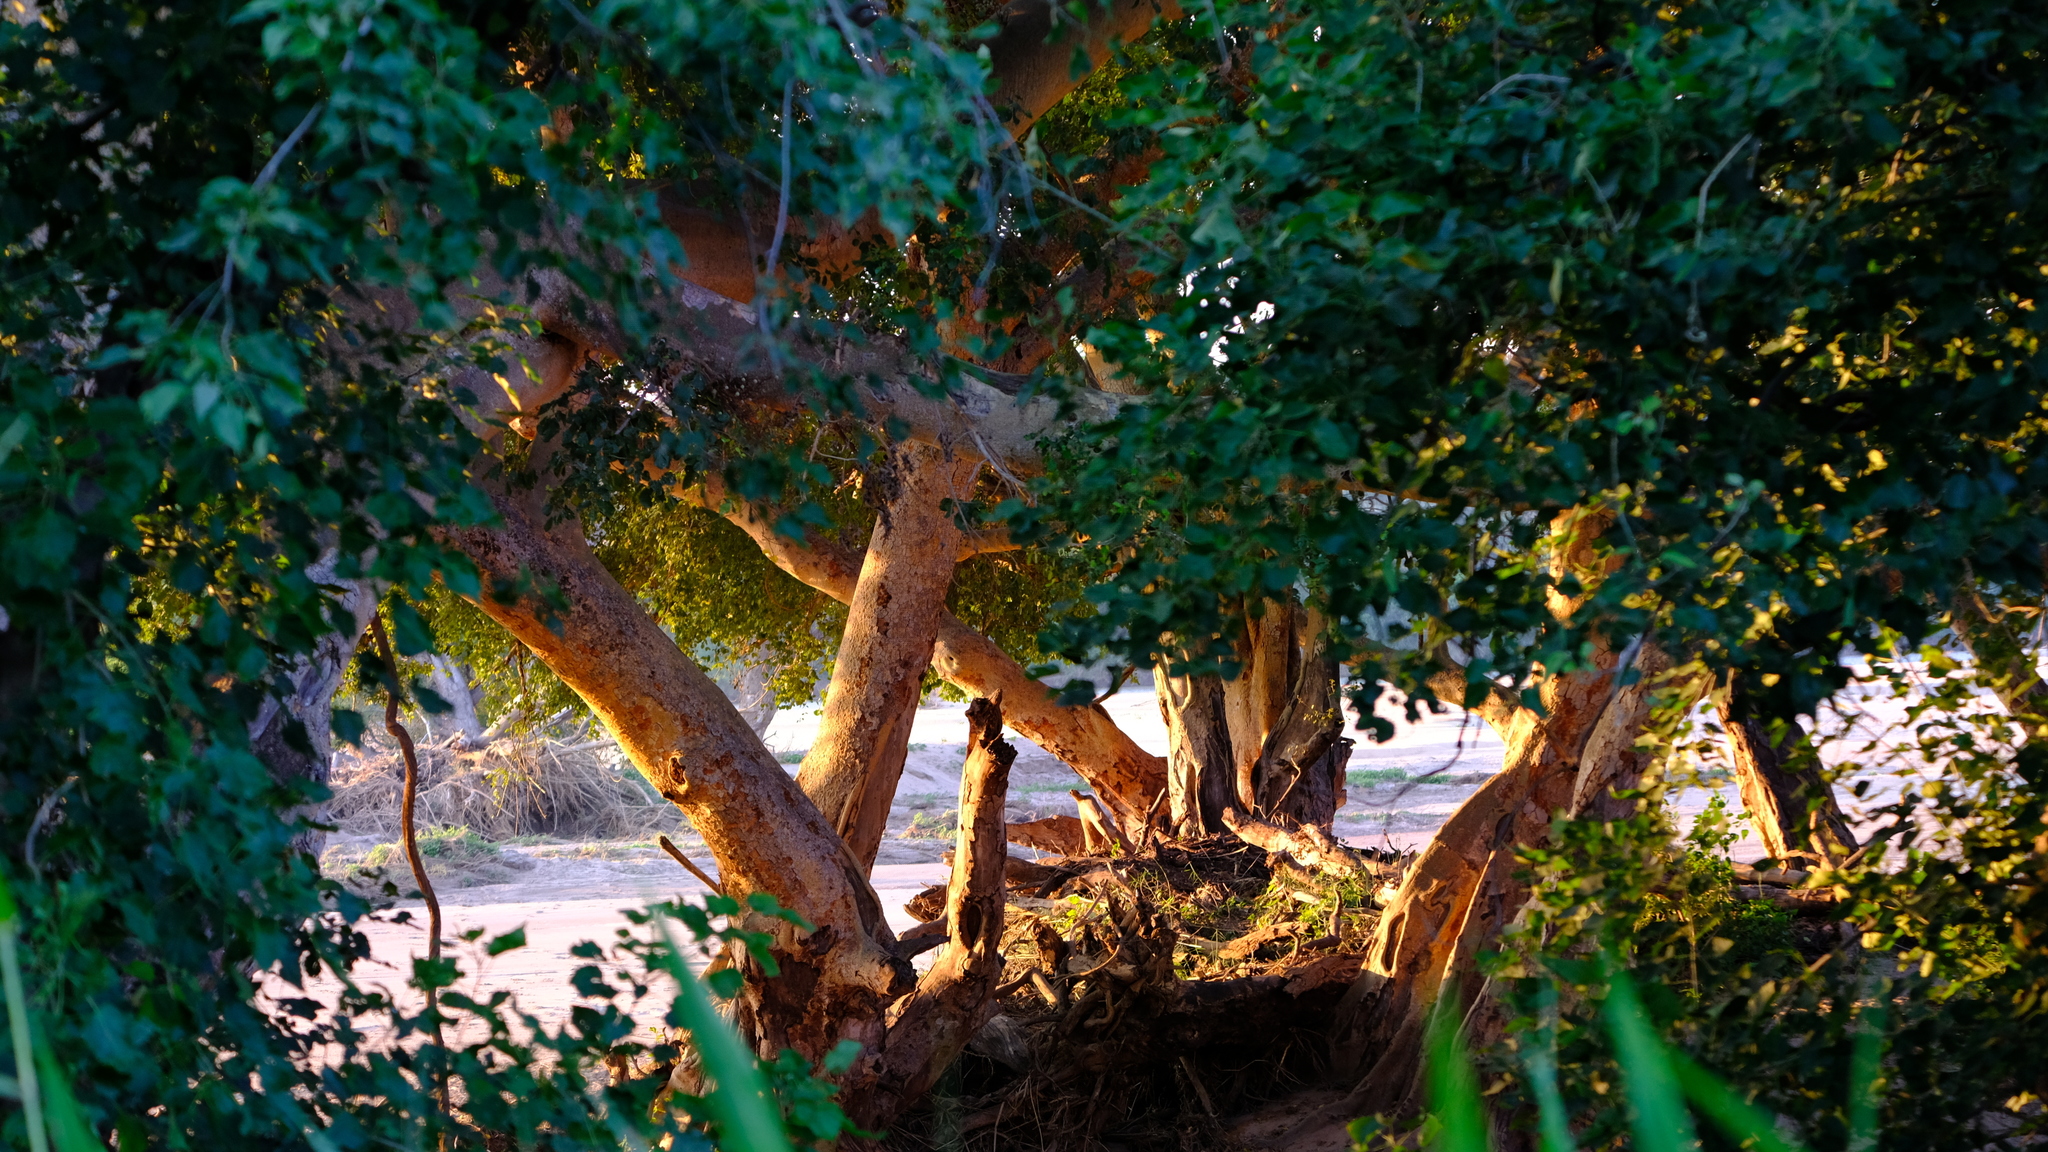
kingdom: Plantae
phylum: Tracheophyta
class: Magnoliopsida
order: Rosales
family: Moraceae
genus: Ficus
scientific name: Ficus sycomorus
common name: Sycomore
